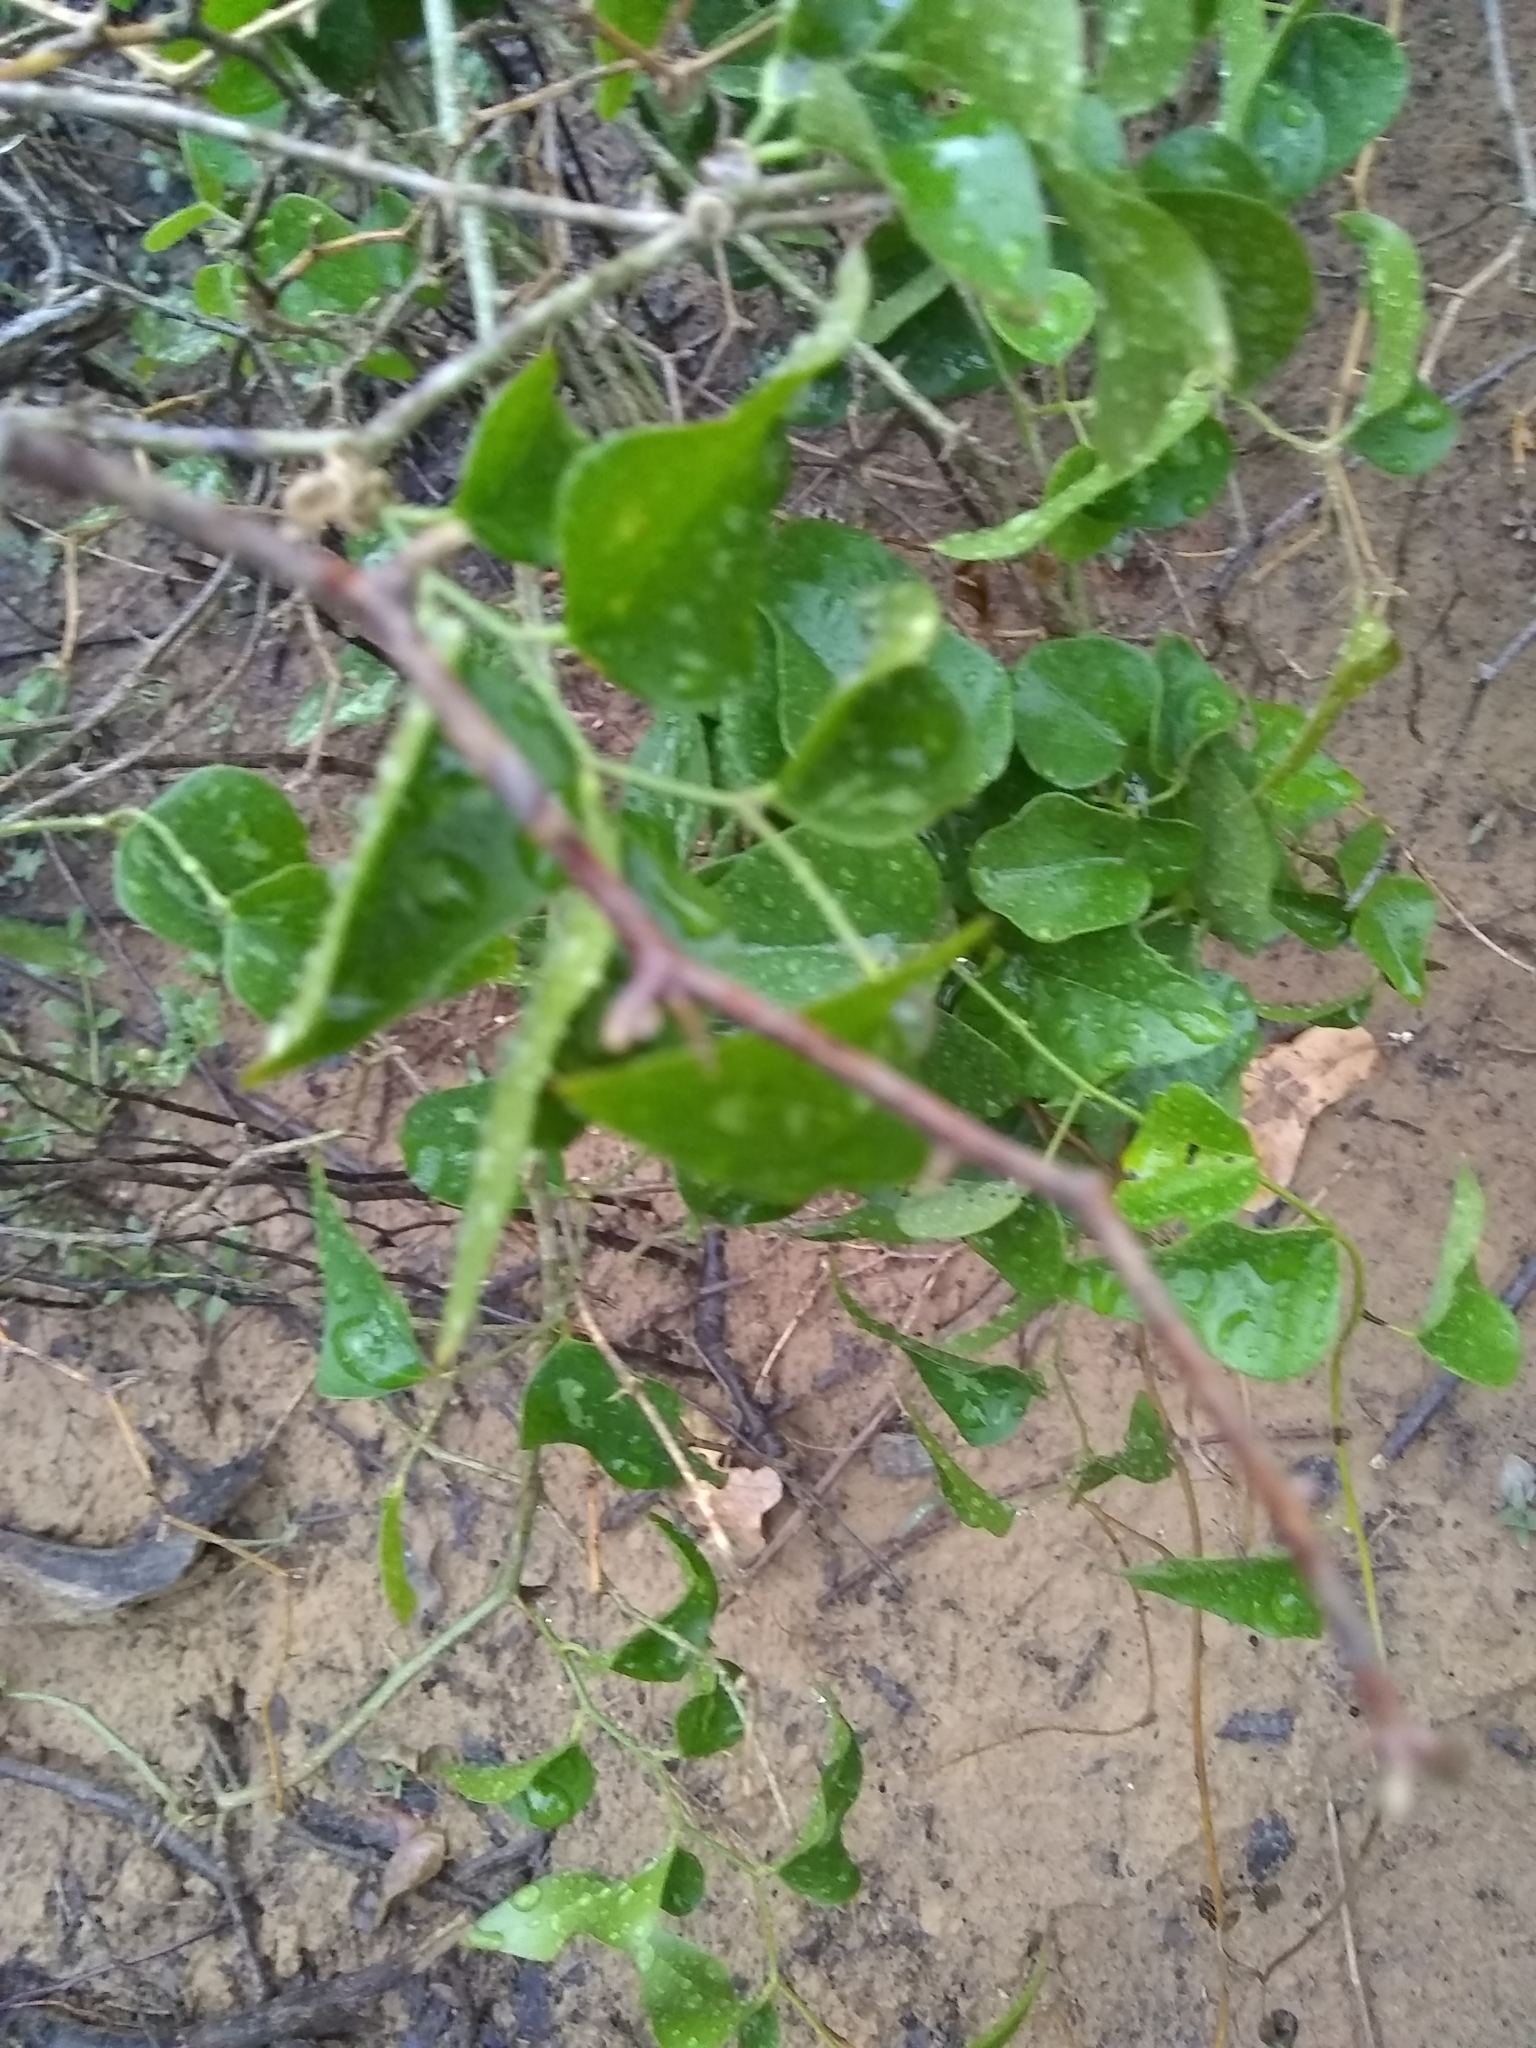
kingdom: Plantae
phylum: Tracheophyta
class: Liliopsida
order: Liliales
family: Smilacaceae
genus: Smilax
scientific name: Smilax bona-nox
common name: Catbrier
